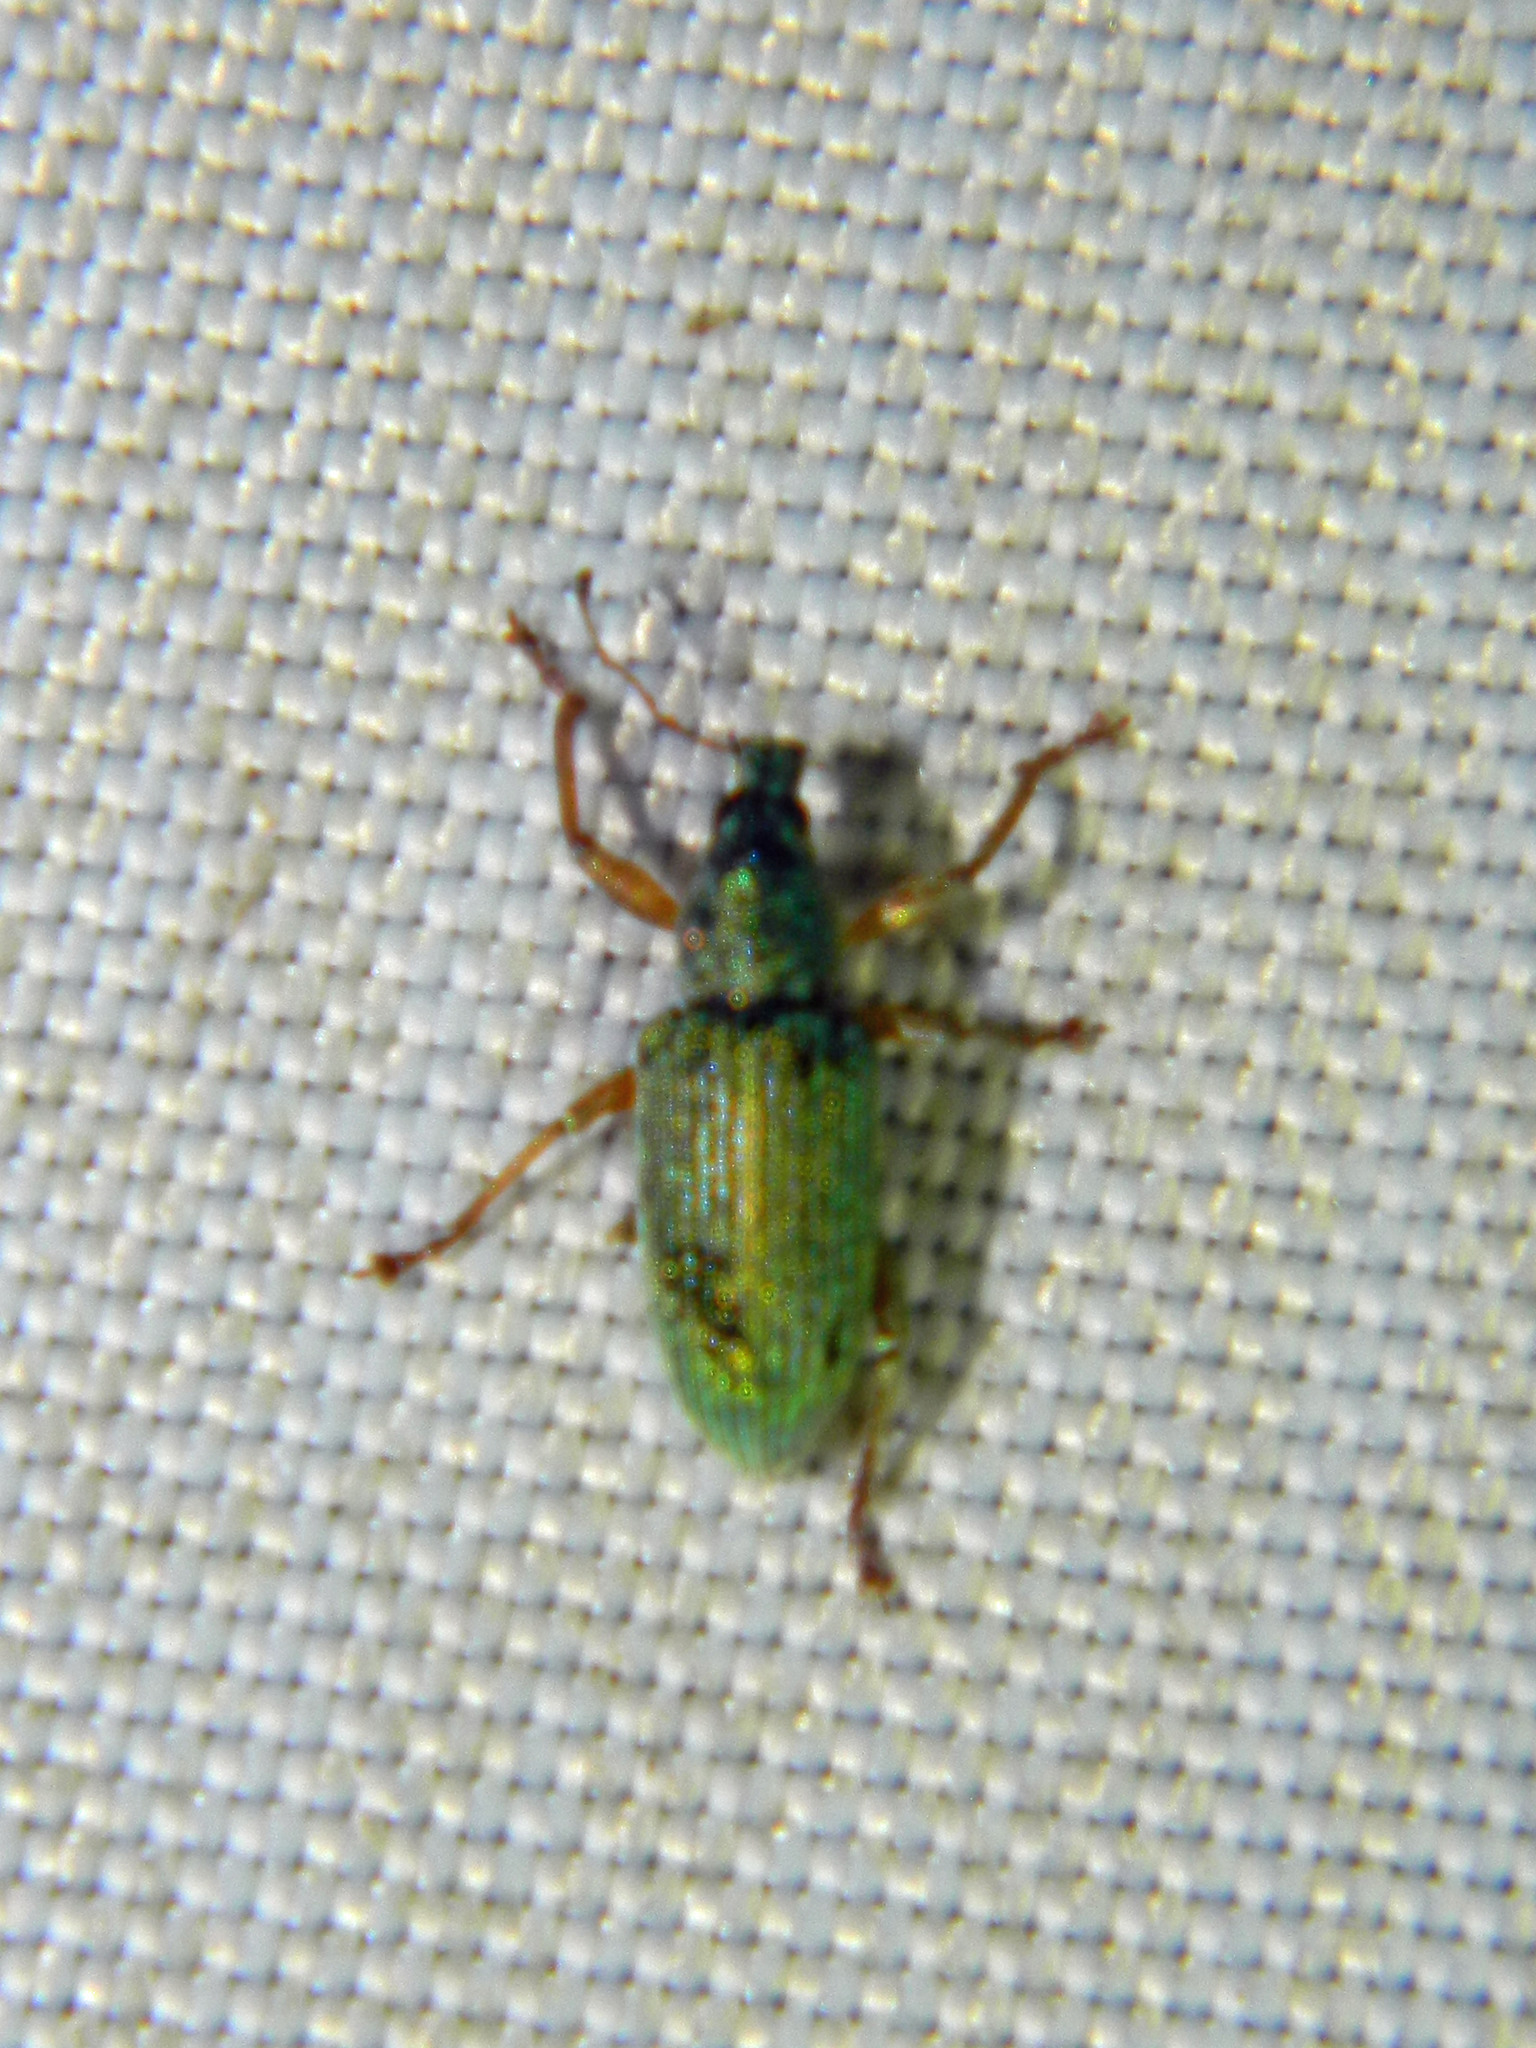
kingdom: Animalia
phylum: Arthropoda
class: Insecta
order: Coleoptera
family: Curculionidae
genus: Polydrusus
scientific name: Polydrusus formosus
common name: Weevil
